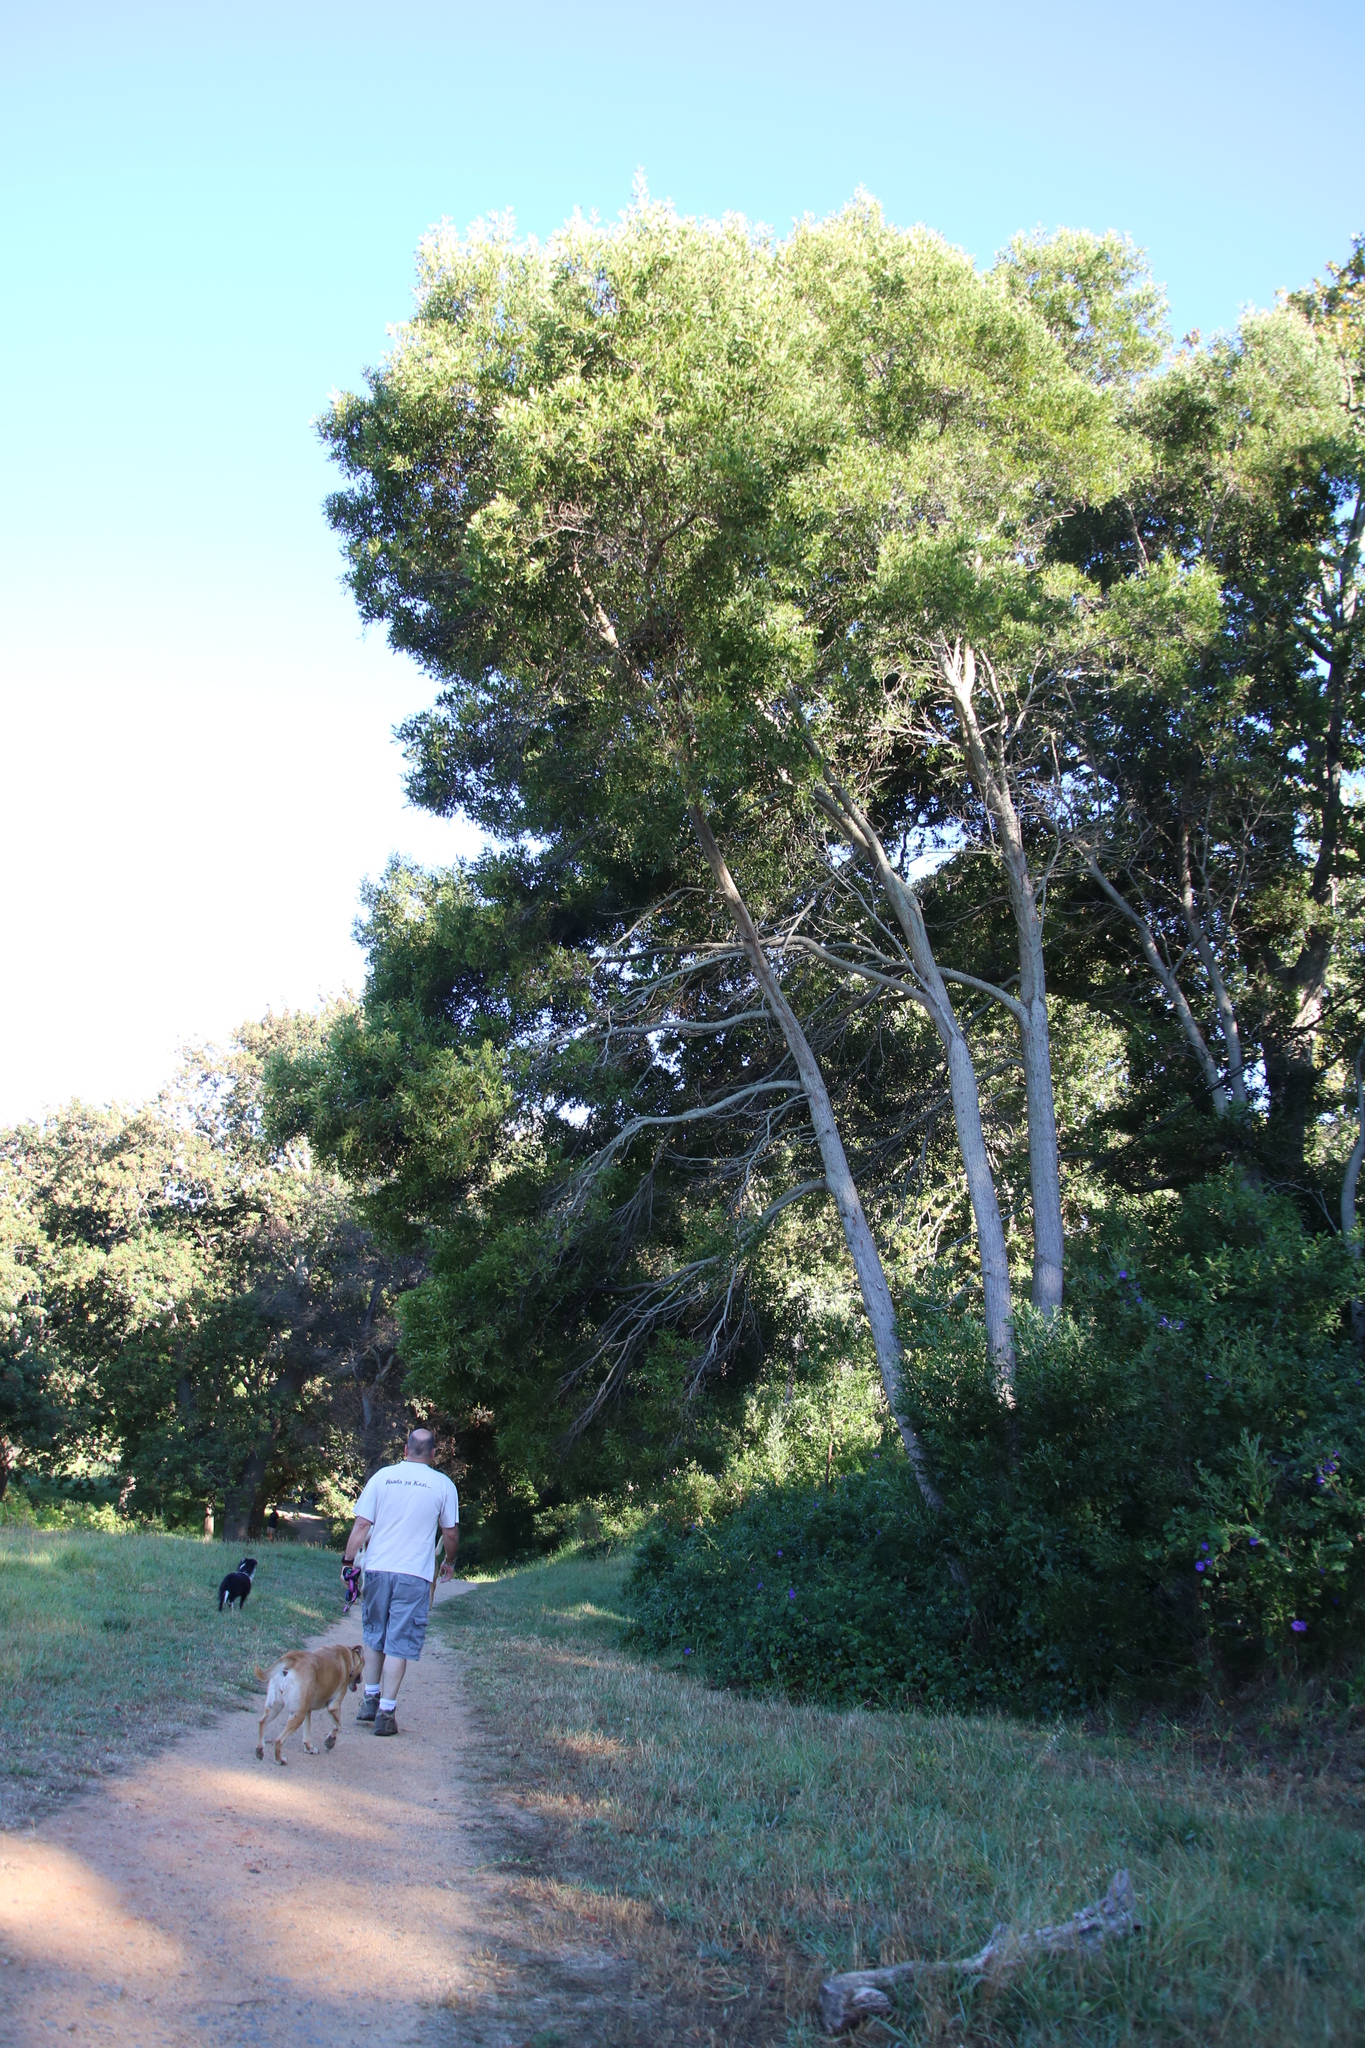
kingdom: Plantae
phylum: Tracheophyta
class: Magnoliopsida
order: Fabales
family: Fabaceae
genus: Acacia
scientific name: Acacia melanoxylon
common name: Blackwood
